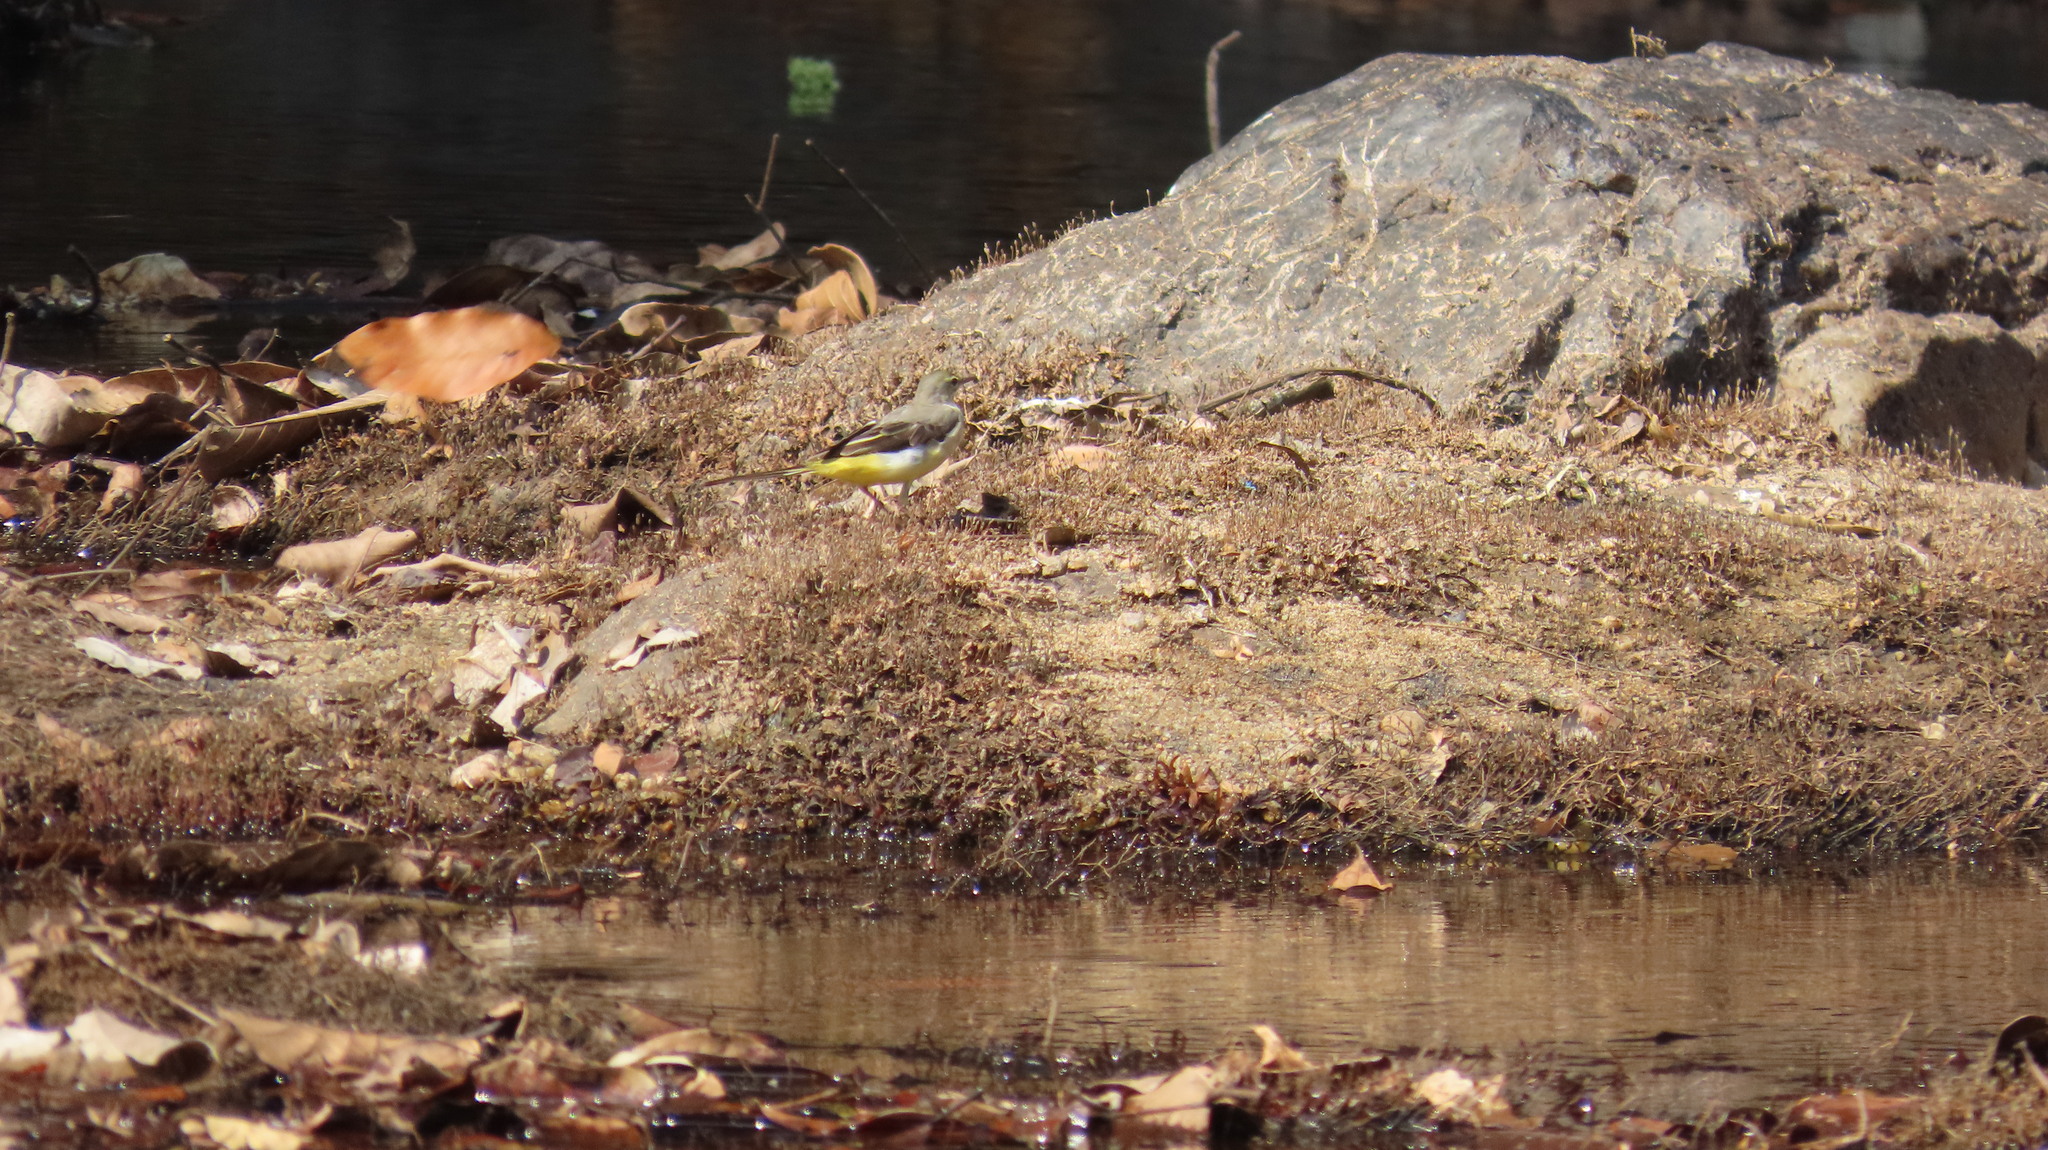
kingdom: Animalia
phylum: Chordata
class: Aves
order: Passeriformes
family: Motacillidae
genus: Motacilla
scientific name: Motacilla cinerea
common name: Grey wagtail
